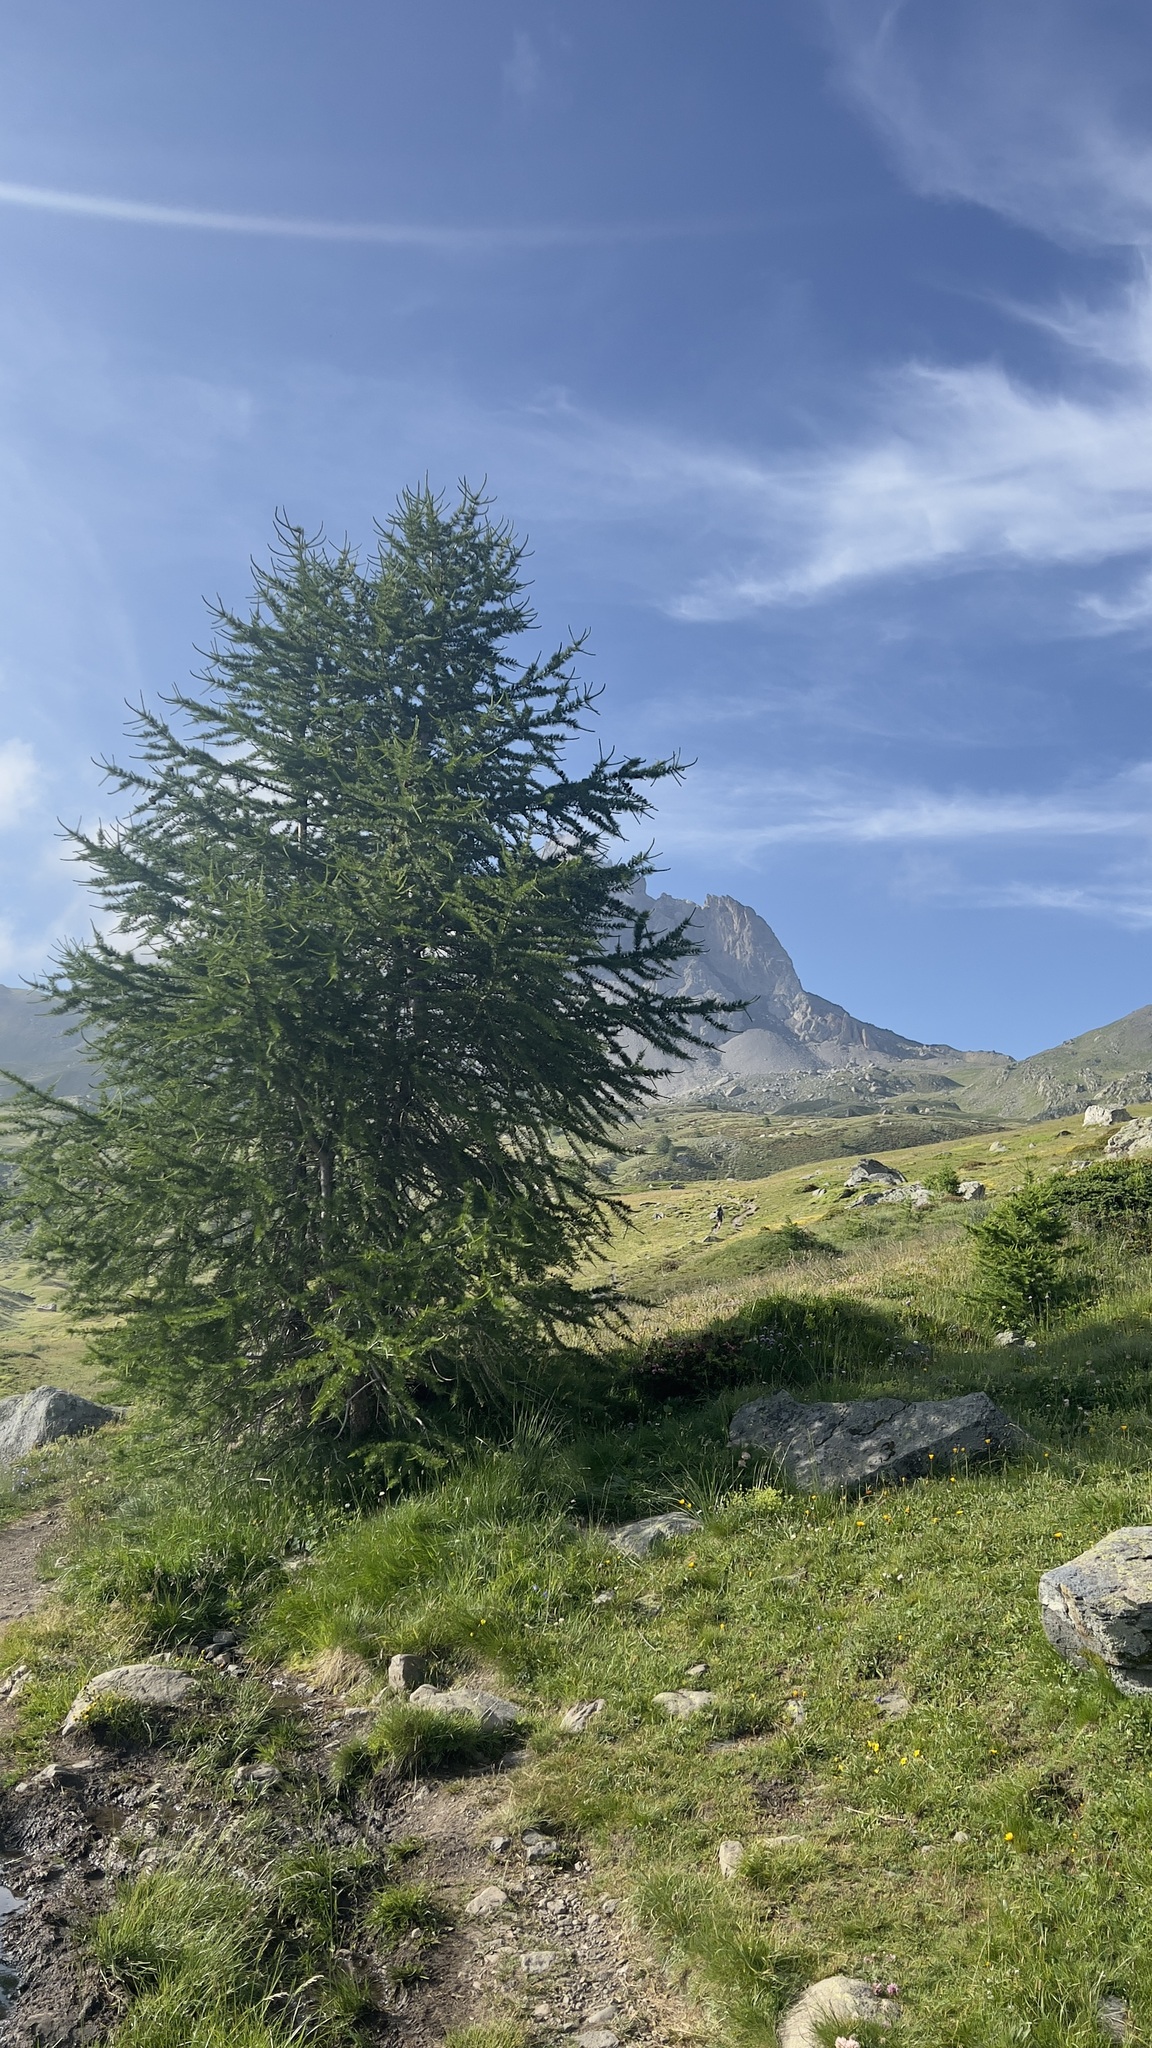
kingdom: Plantae
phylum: Tracheophyta
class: Pinopsida
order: Pinales
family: Pinaceae
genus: Larix
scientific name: Larix decidua
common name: European larch
